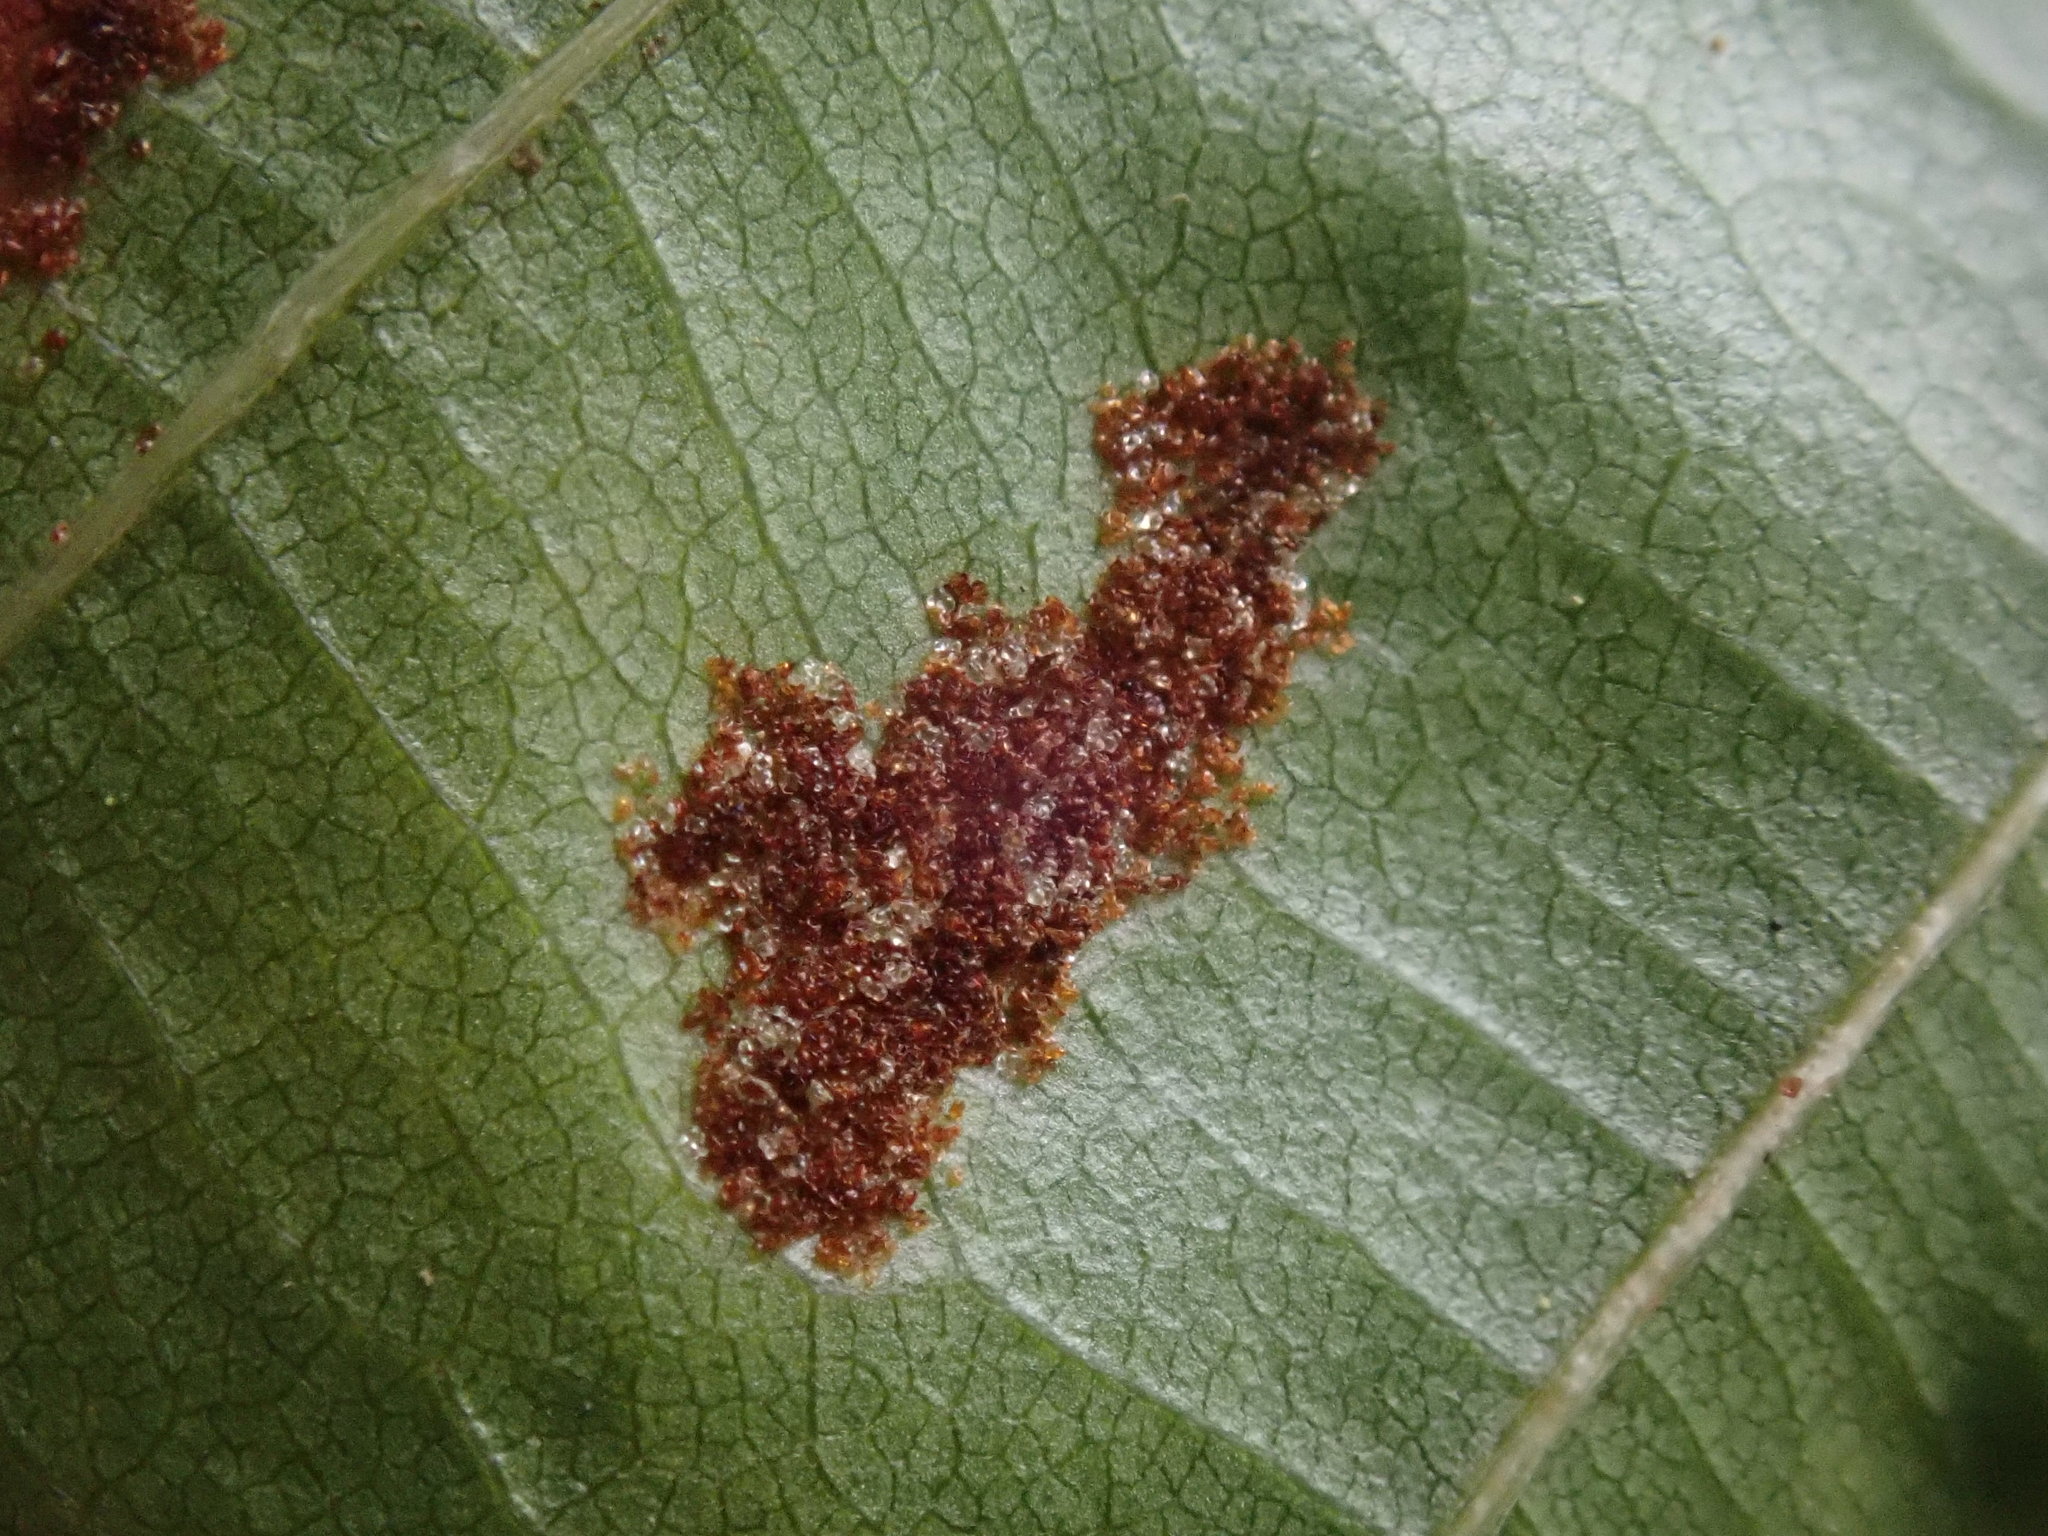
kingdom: Animalia
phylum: Arthropoda
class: Arachnida
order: Trombidiformes
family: Eriophyidae
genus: Acalitus
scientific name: Acalitus
